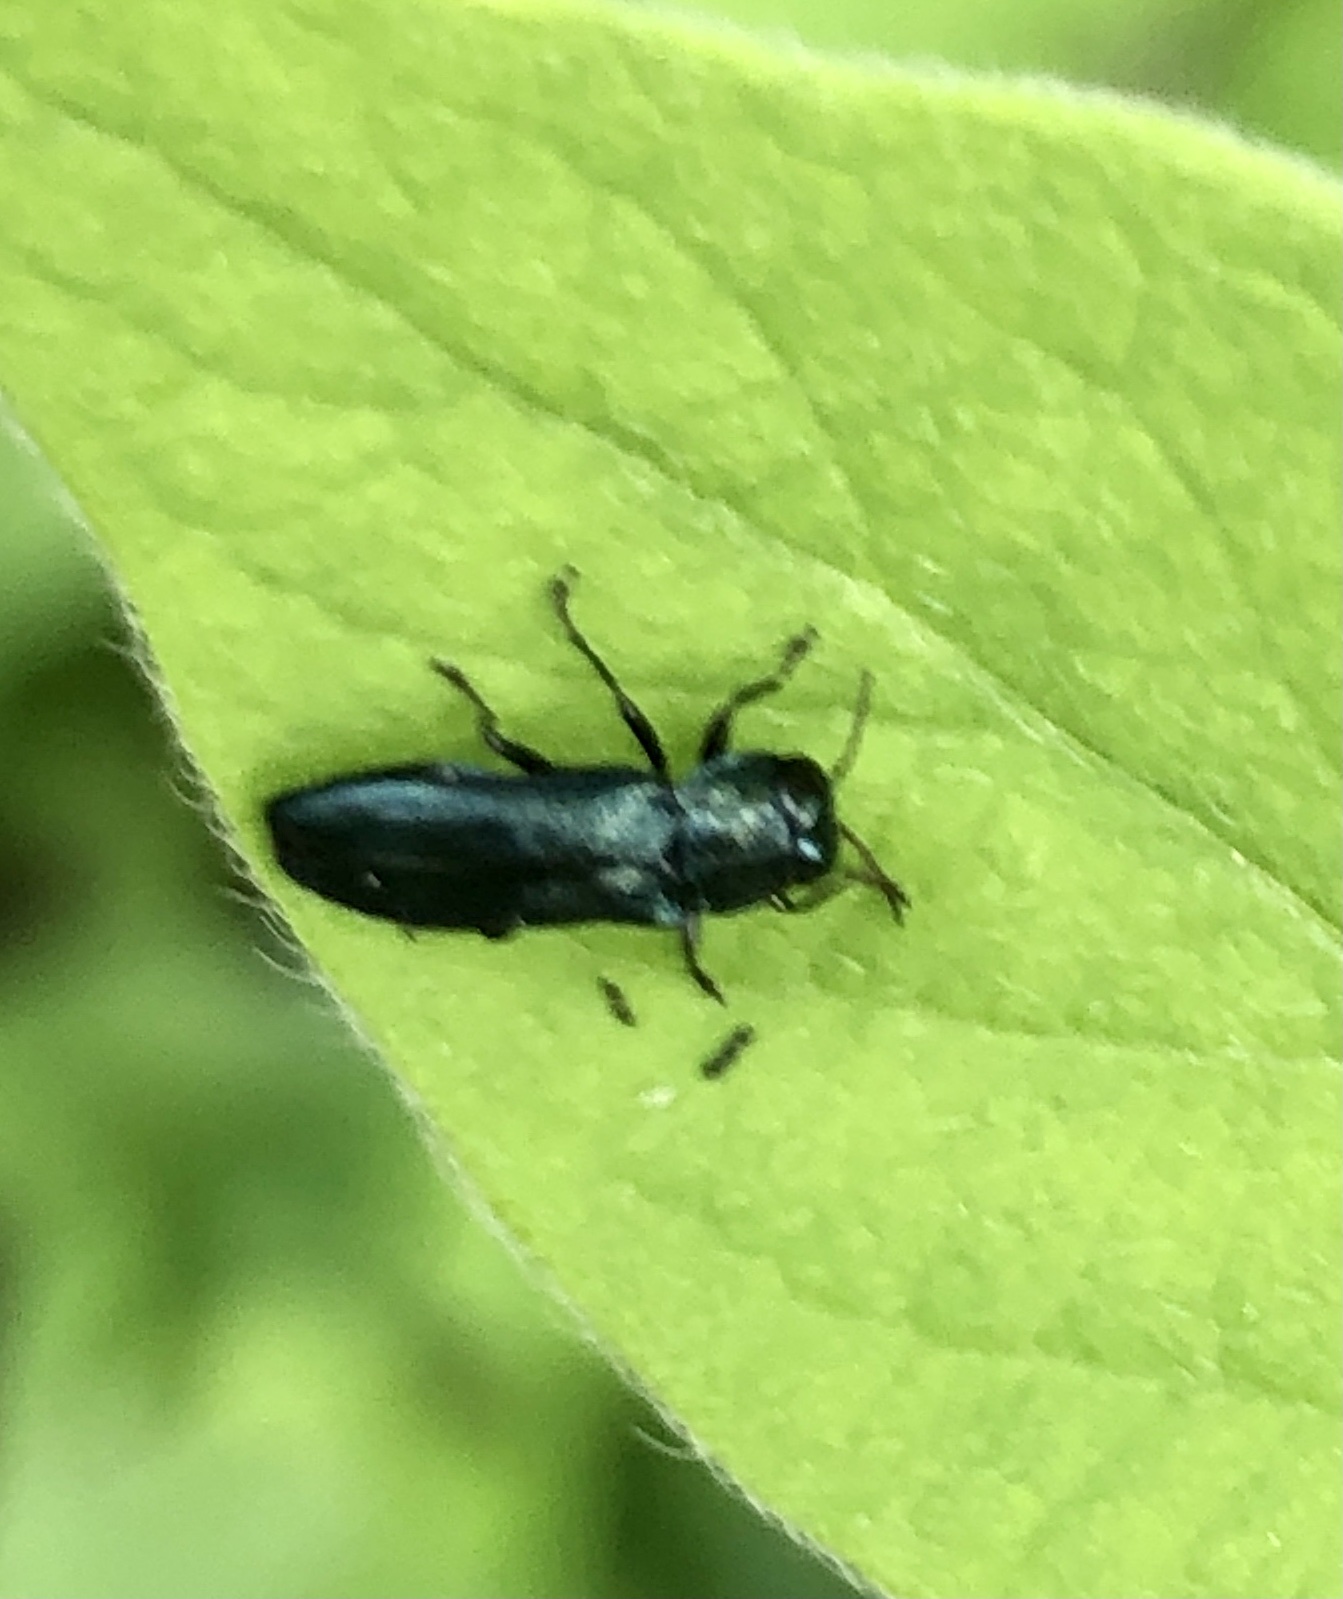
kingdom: Animalia
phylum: Arthropoda
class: Insecta
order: Coleoptera
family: Buprestidae
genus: Agrilus
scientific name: Agrilus cyanescens
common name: Bluish borer beetle
